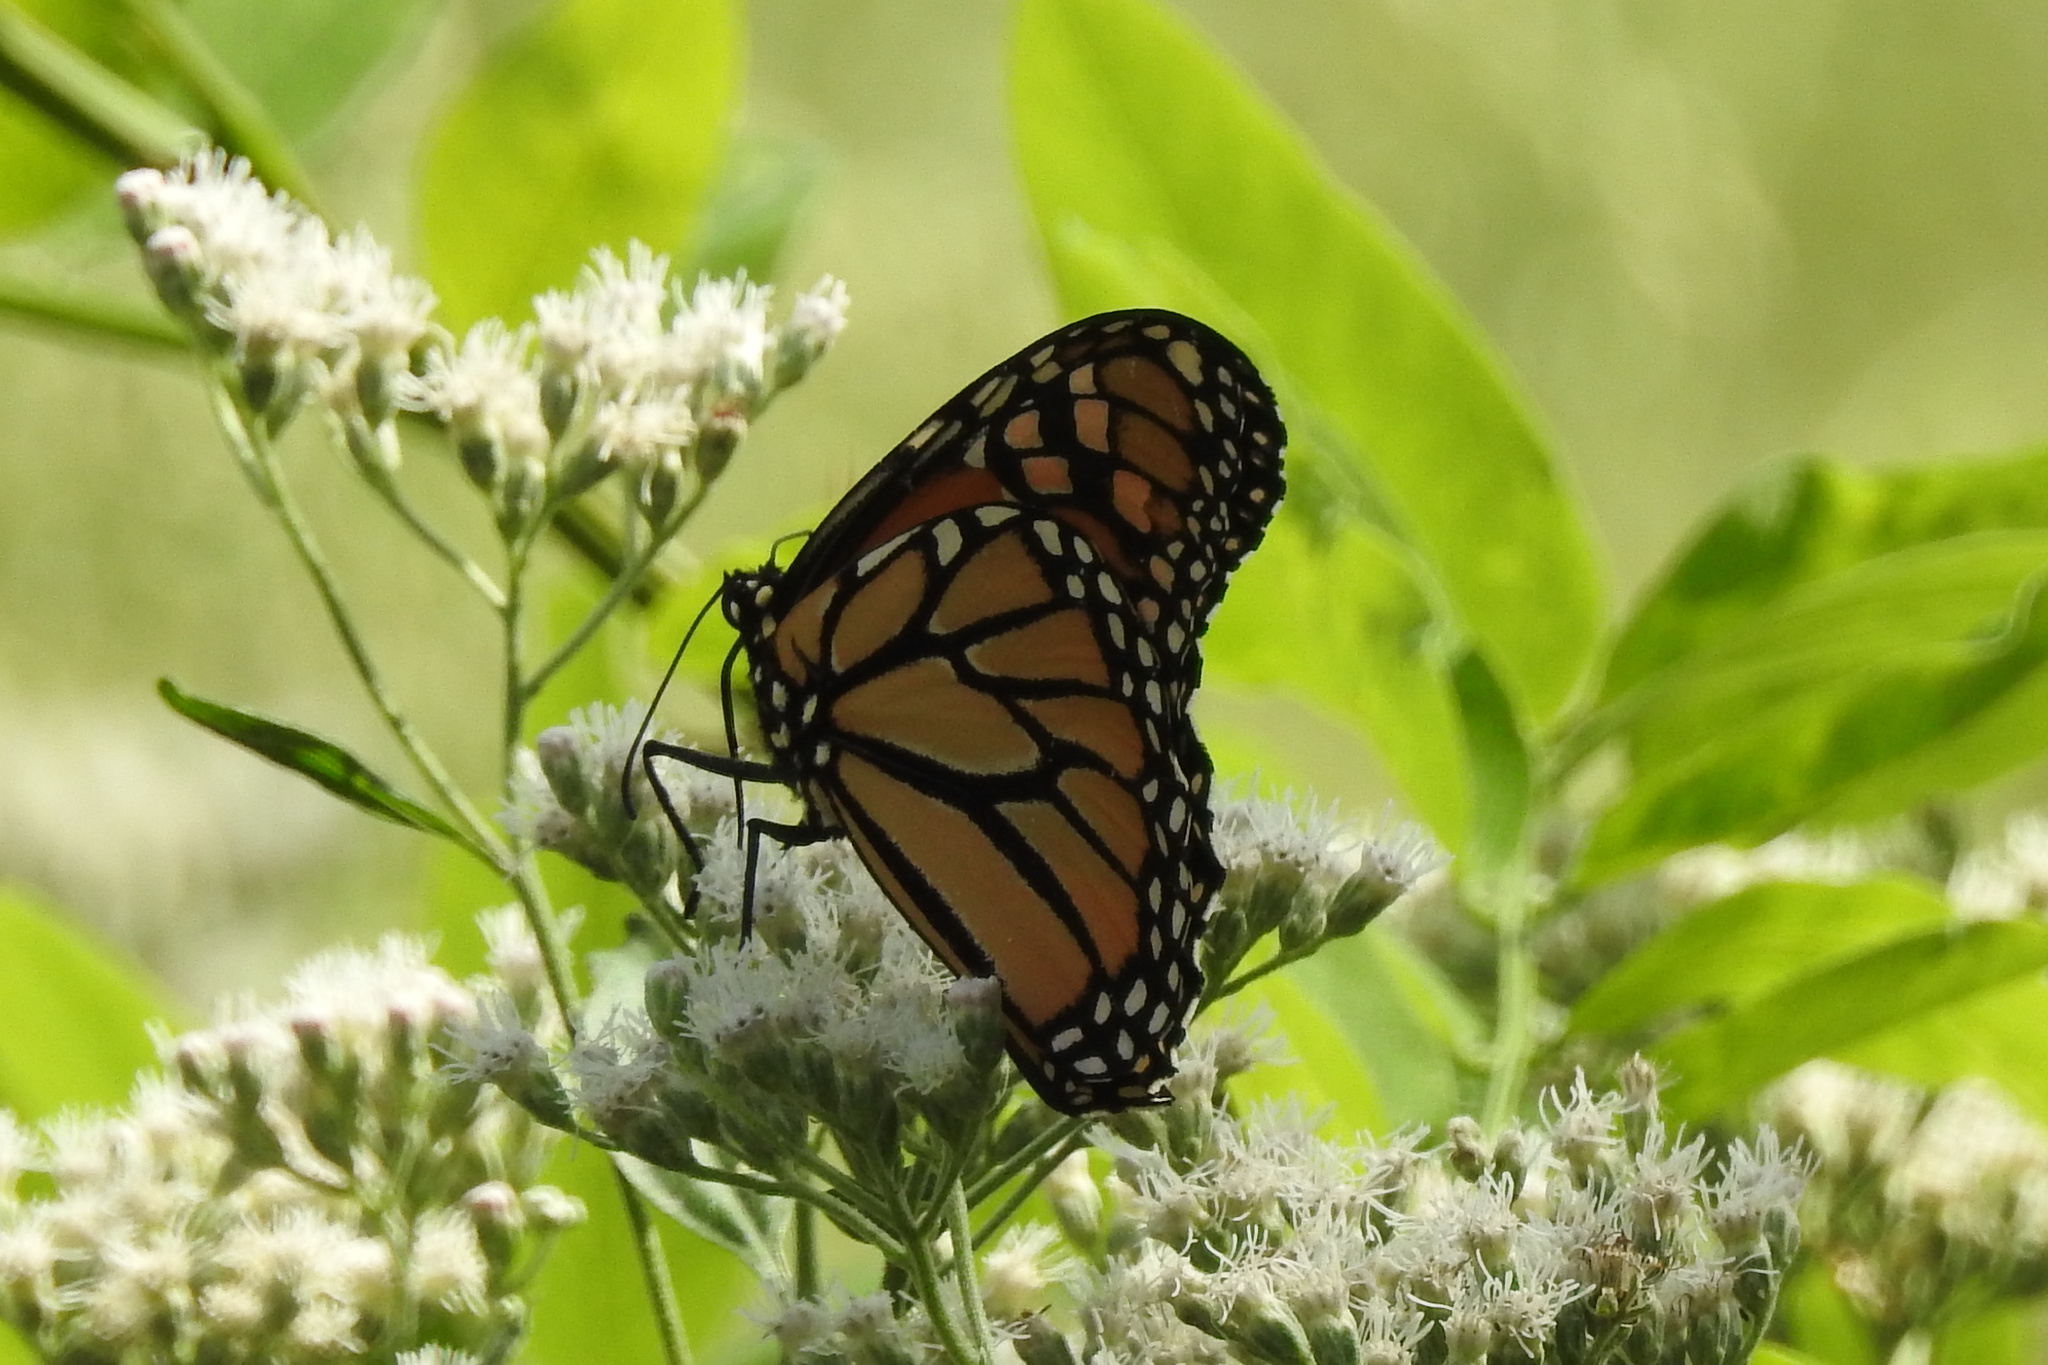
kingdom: Animalia
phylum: Arthropoda
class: Insecta
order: Lepidoptera
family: Nymphalidae
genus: Danaus
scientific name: Danaus plexippus
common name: Monarch
